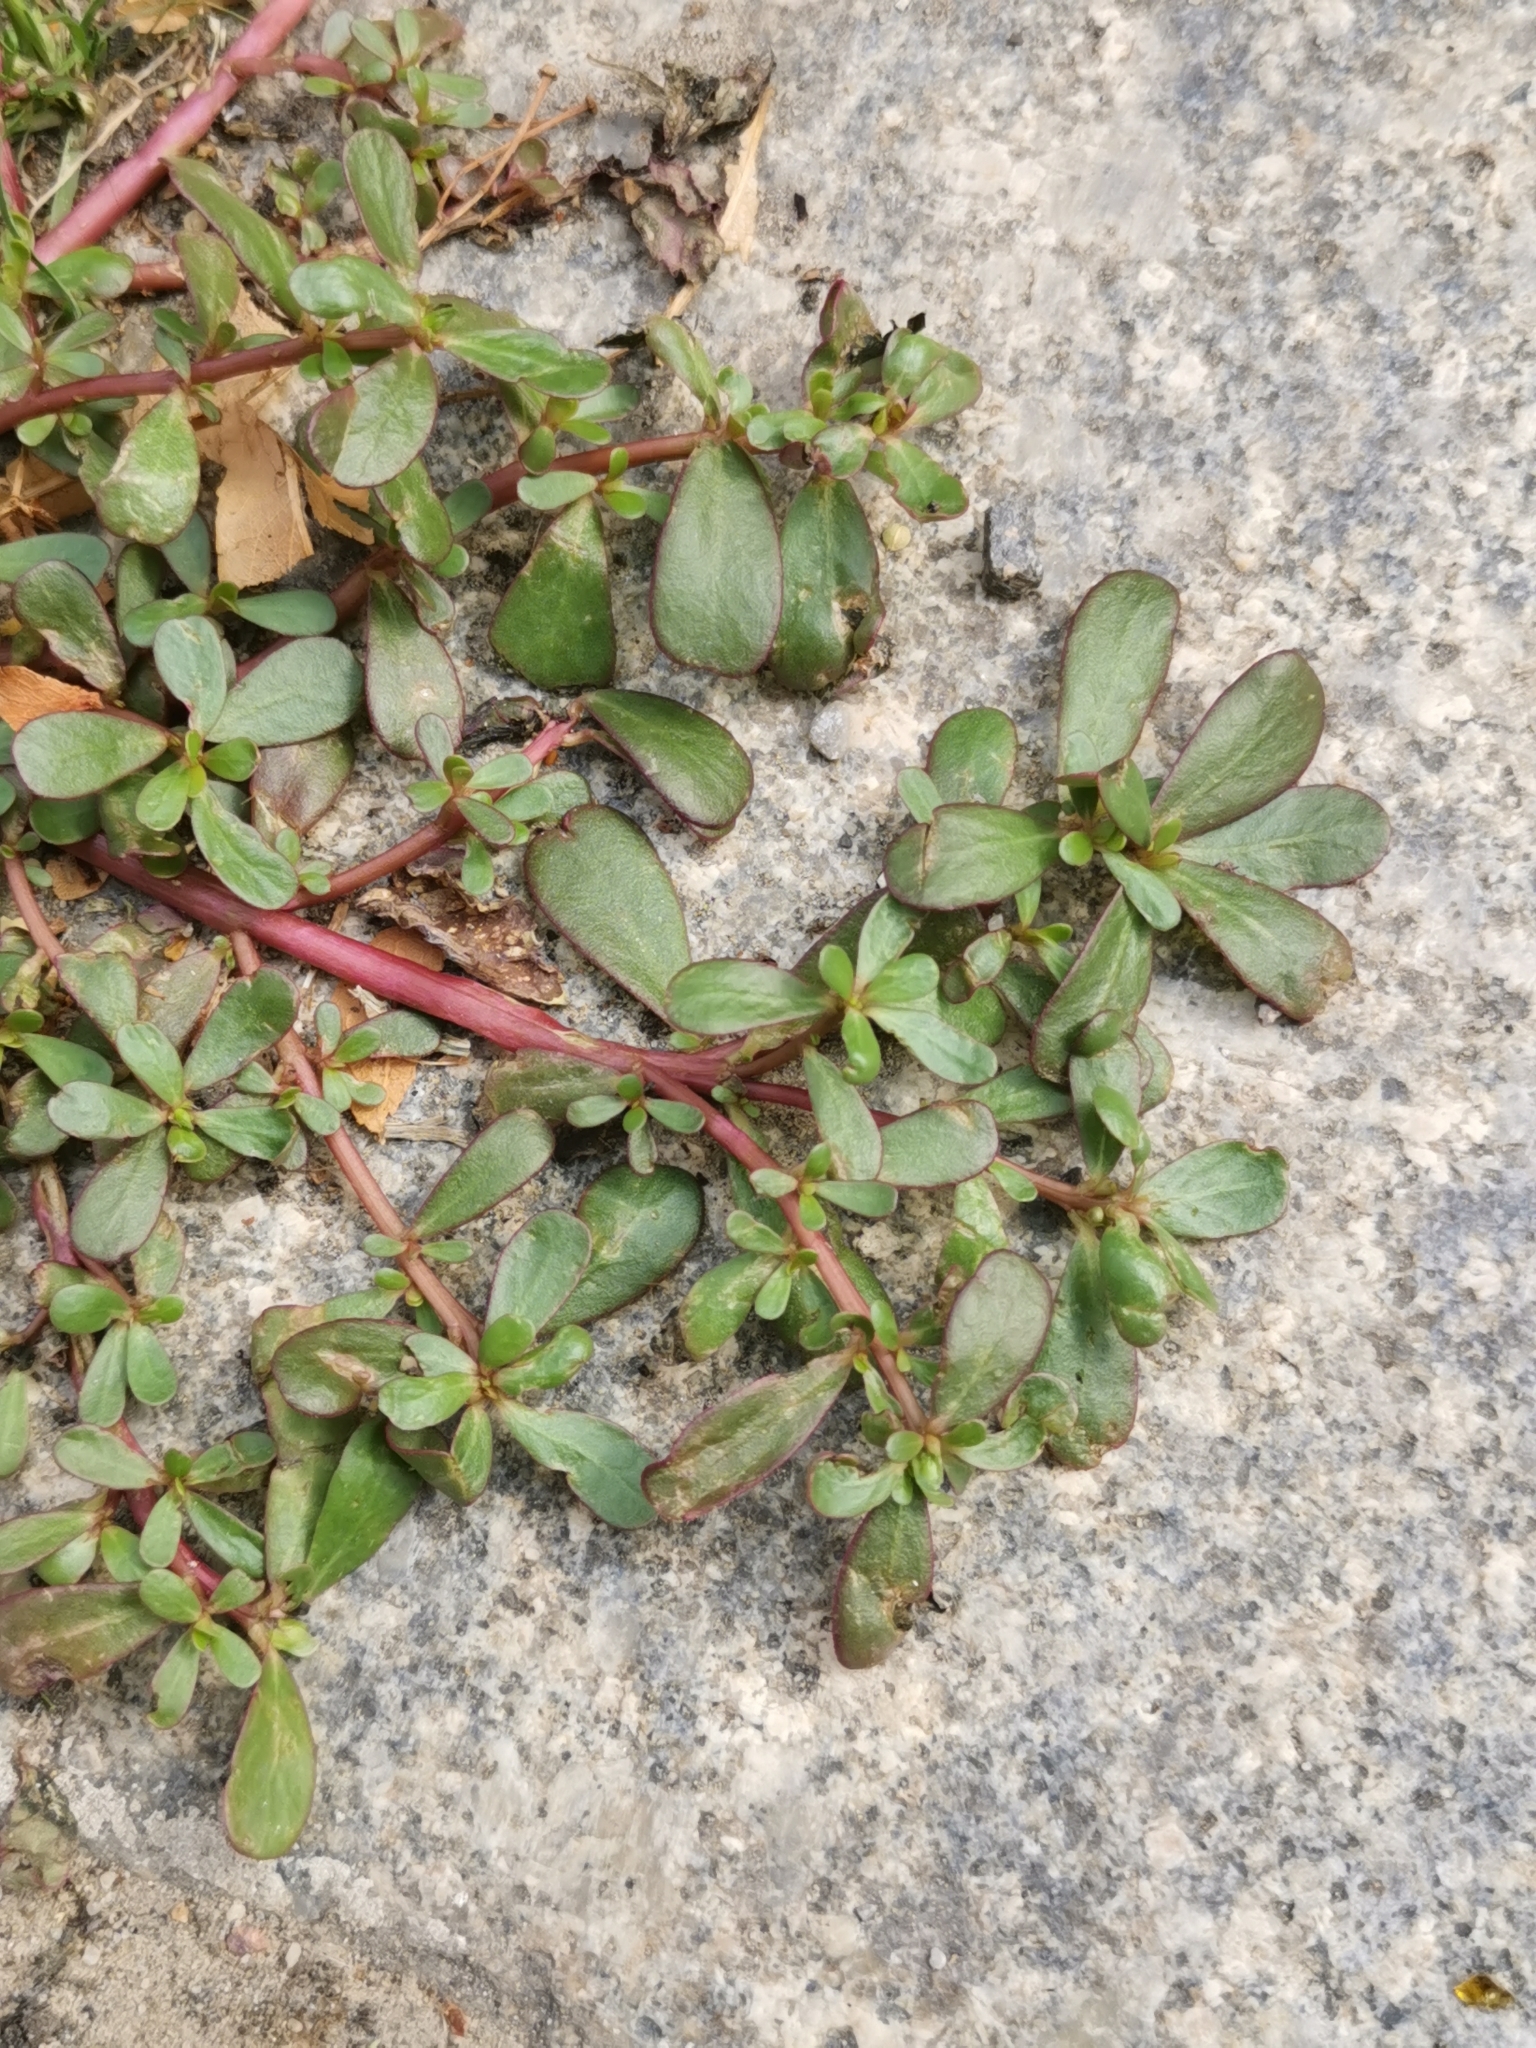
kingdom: Plantae
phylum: Tracheophyta
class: Magnoliopsida
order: Caryophyllales
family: Portulacaceae
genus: Portulaca
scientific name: Portulaca oleracea
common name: Common purslane
